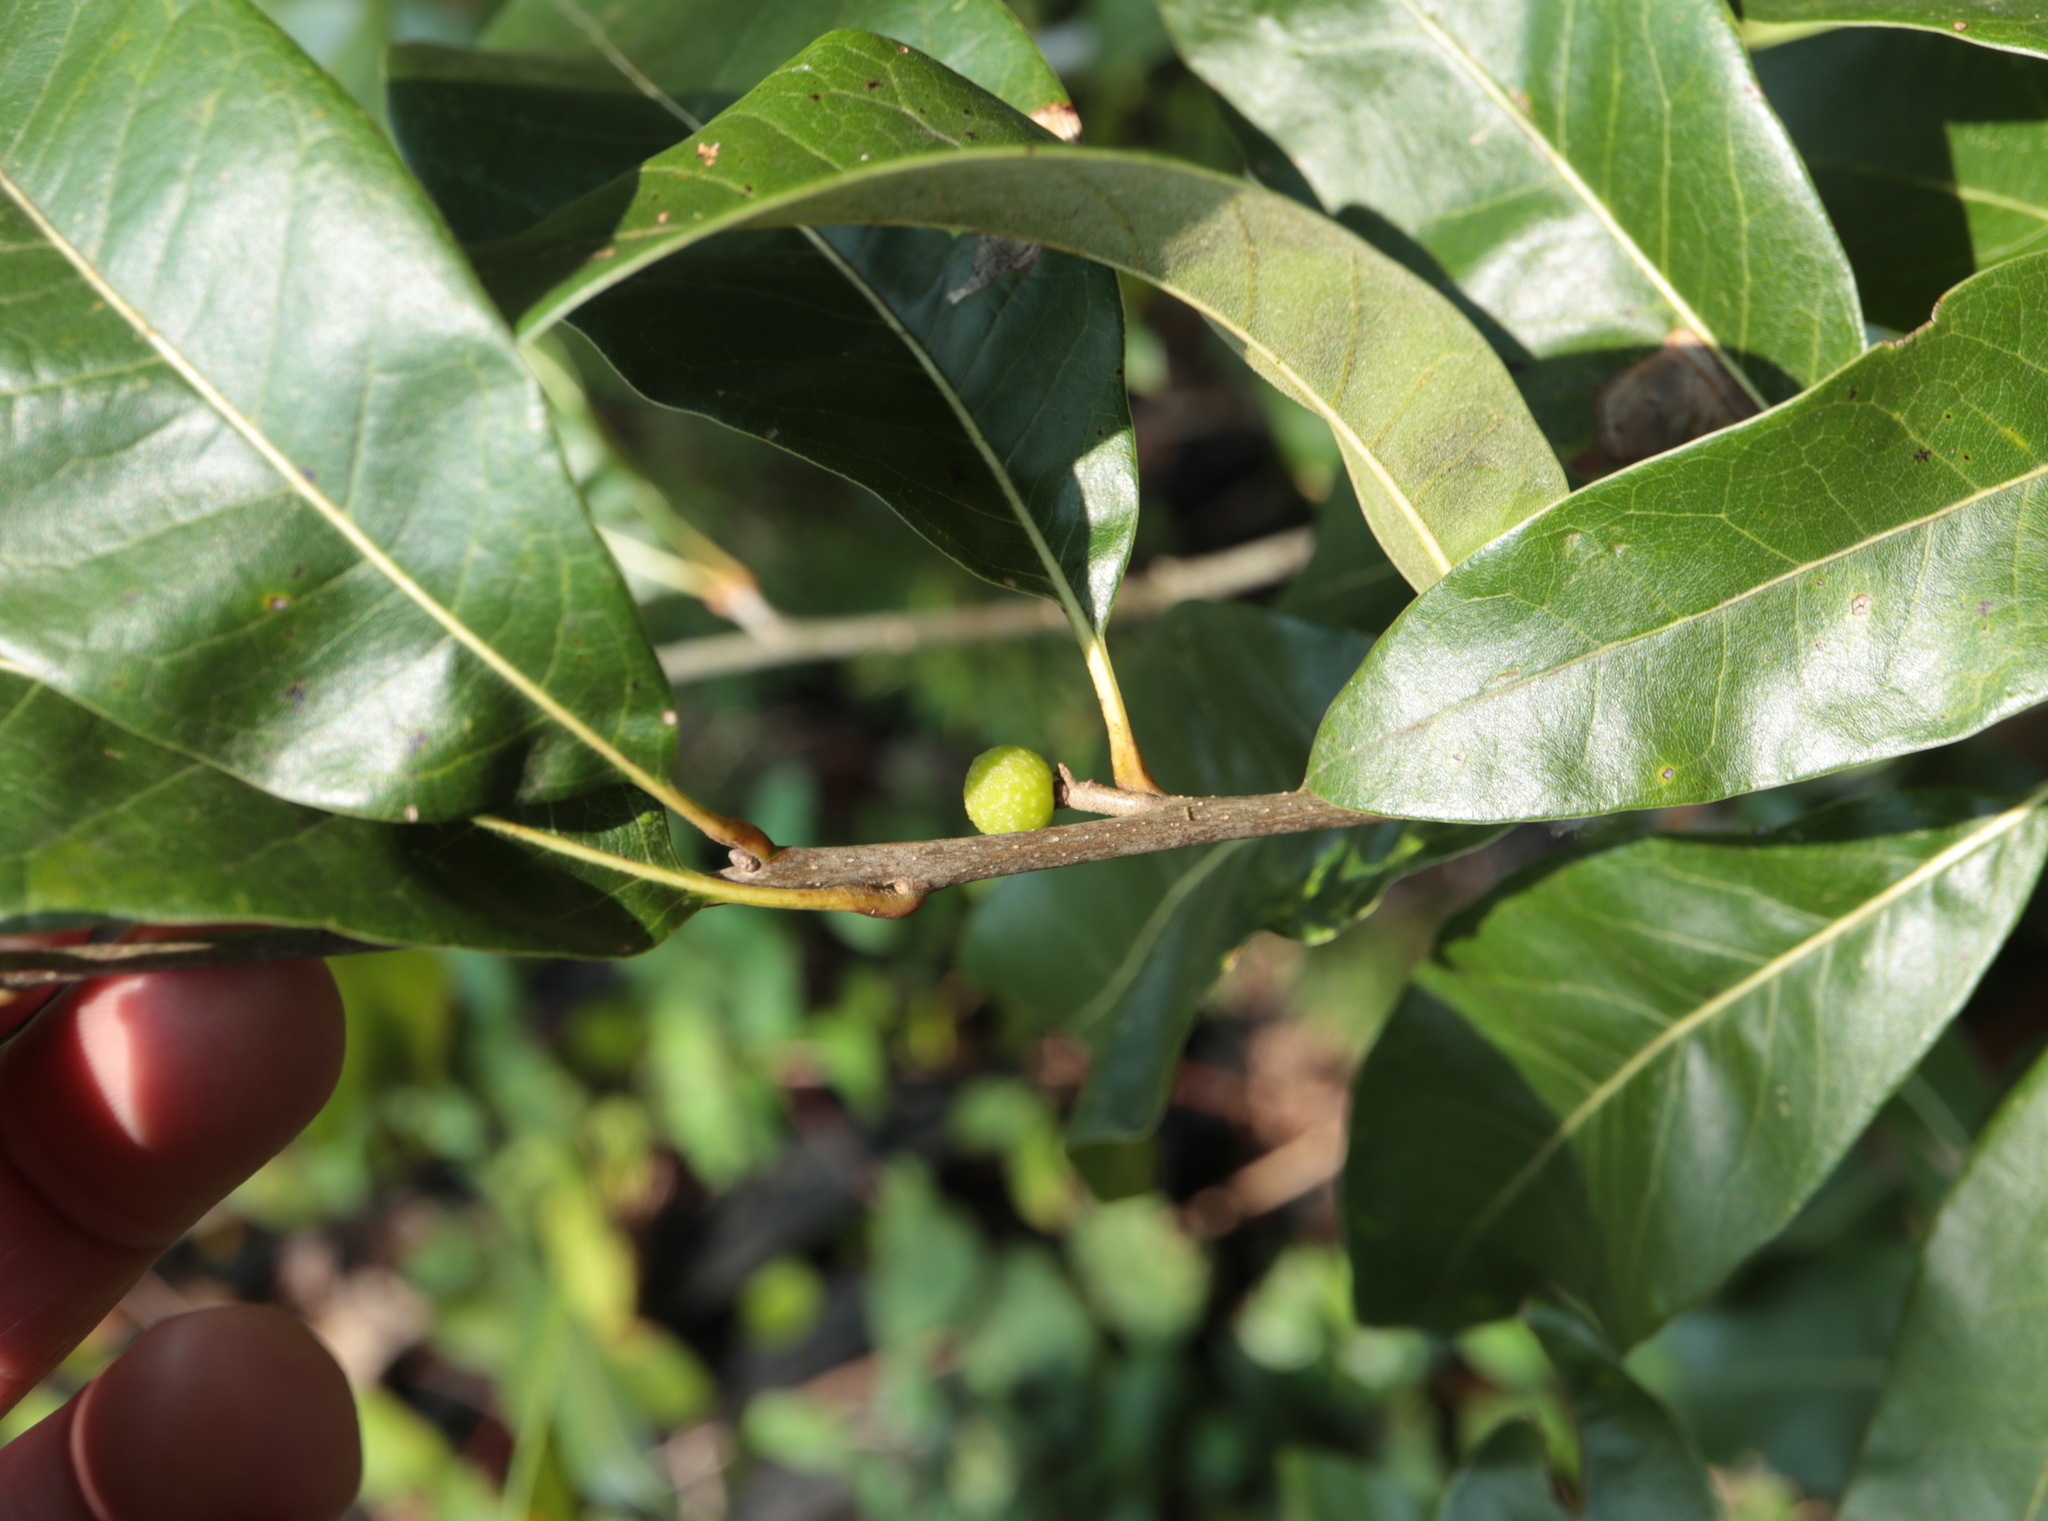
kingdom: Animalia
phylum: Arthropoda
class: Insecta
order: Hymenoptera
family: Cynipidae
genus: Callirhytis
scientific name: Callirhytis
